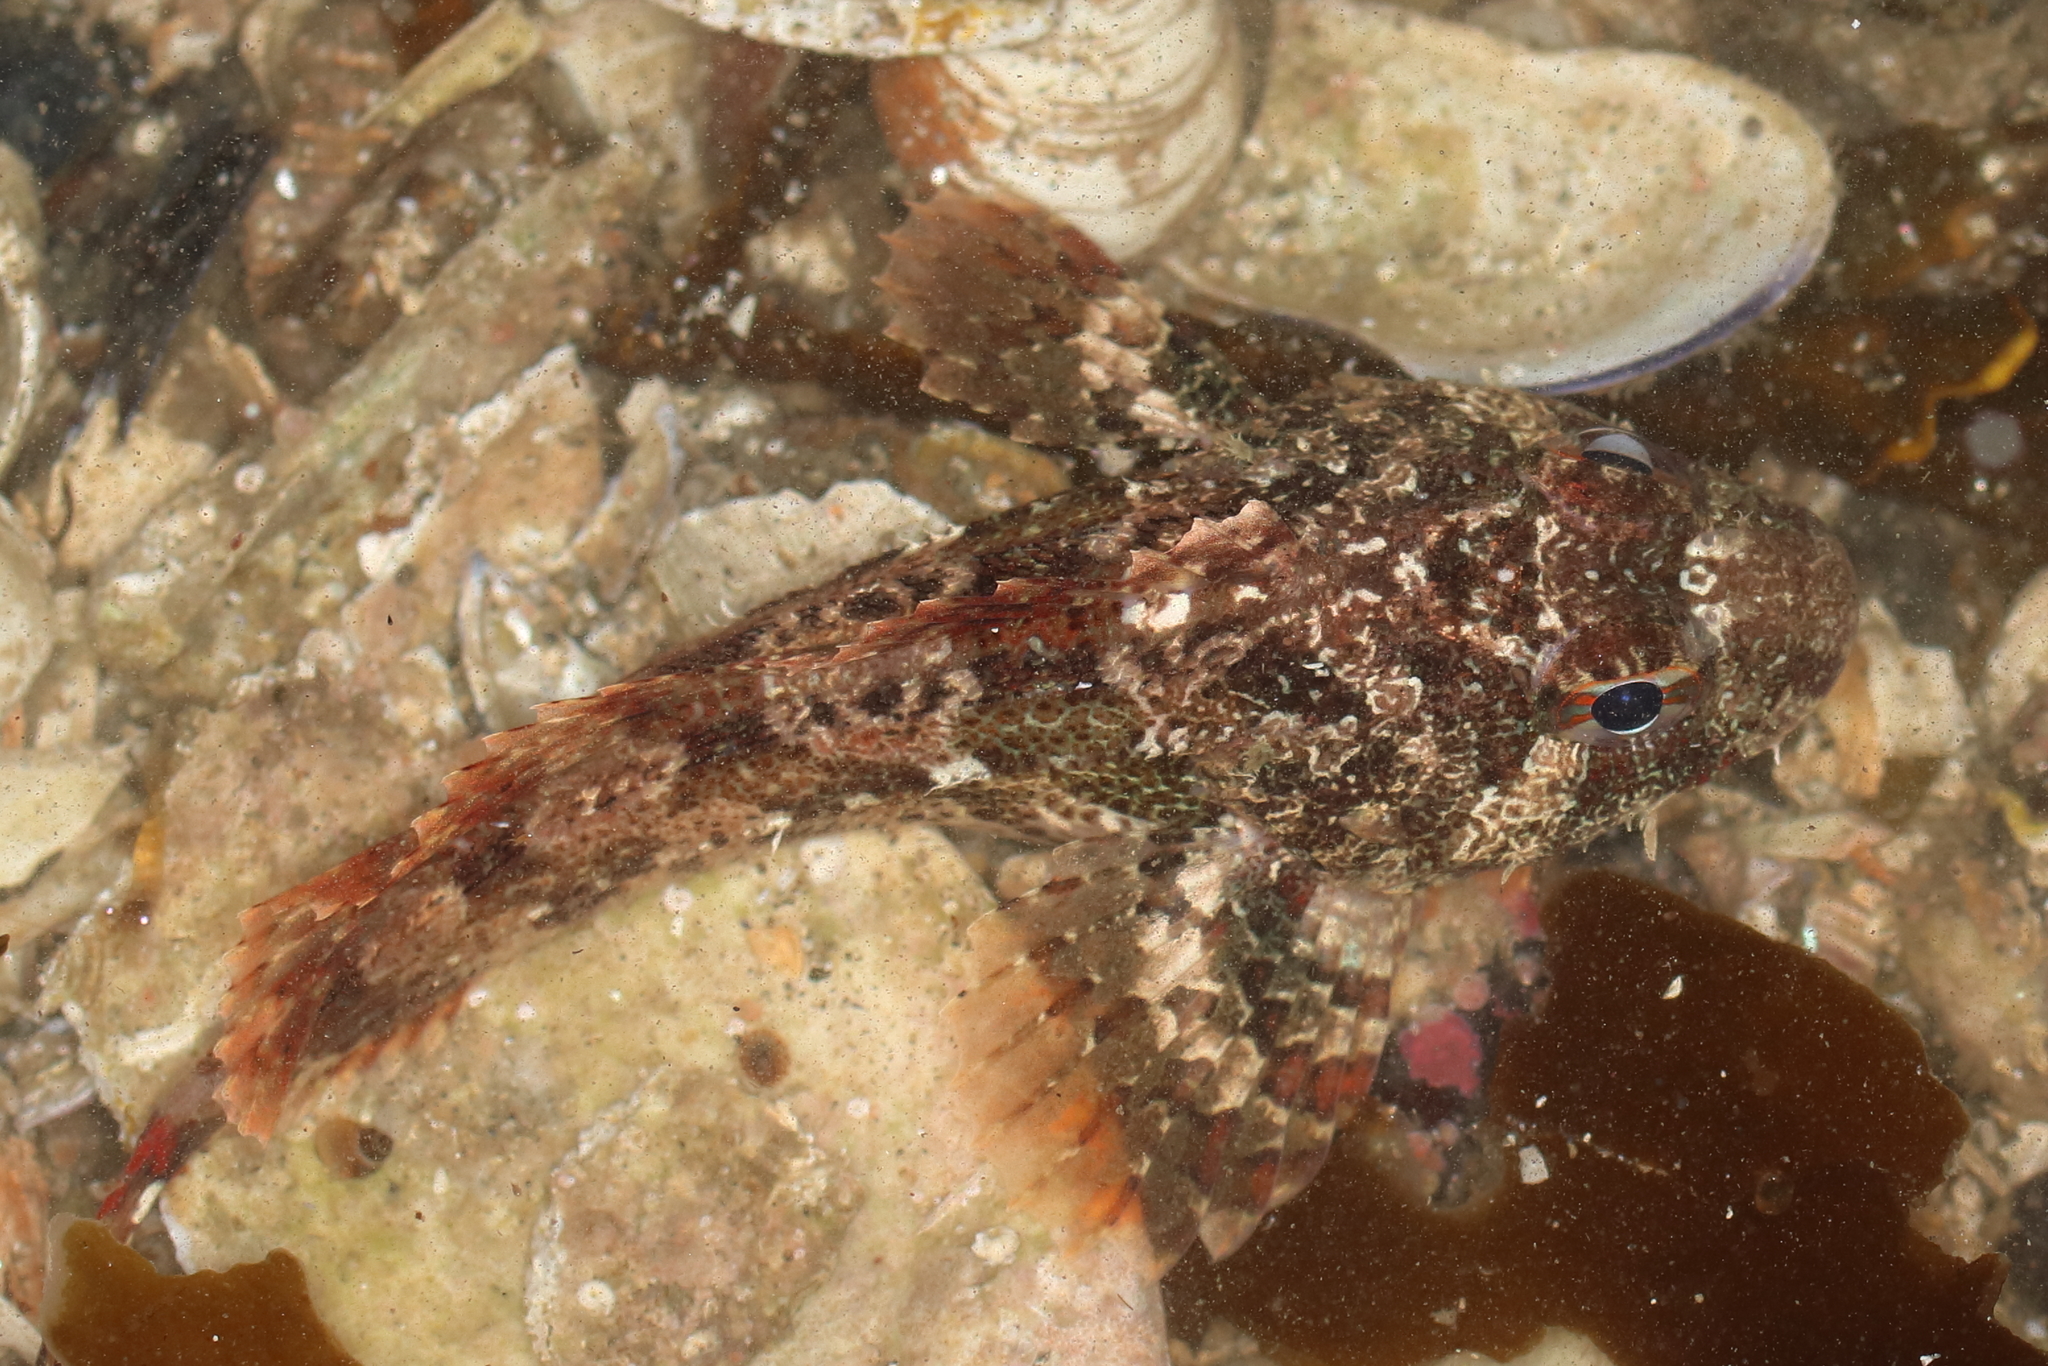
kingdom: Animalia
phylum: Chordata
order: Scorpaeniformes
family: Cottidae
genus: Hemilepidotus
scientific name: Hemilepidotus hemilepidotus
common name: Red irish lord
